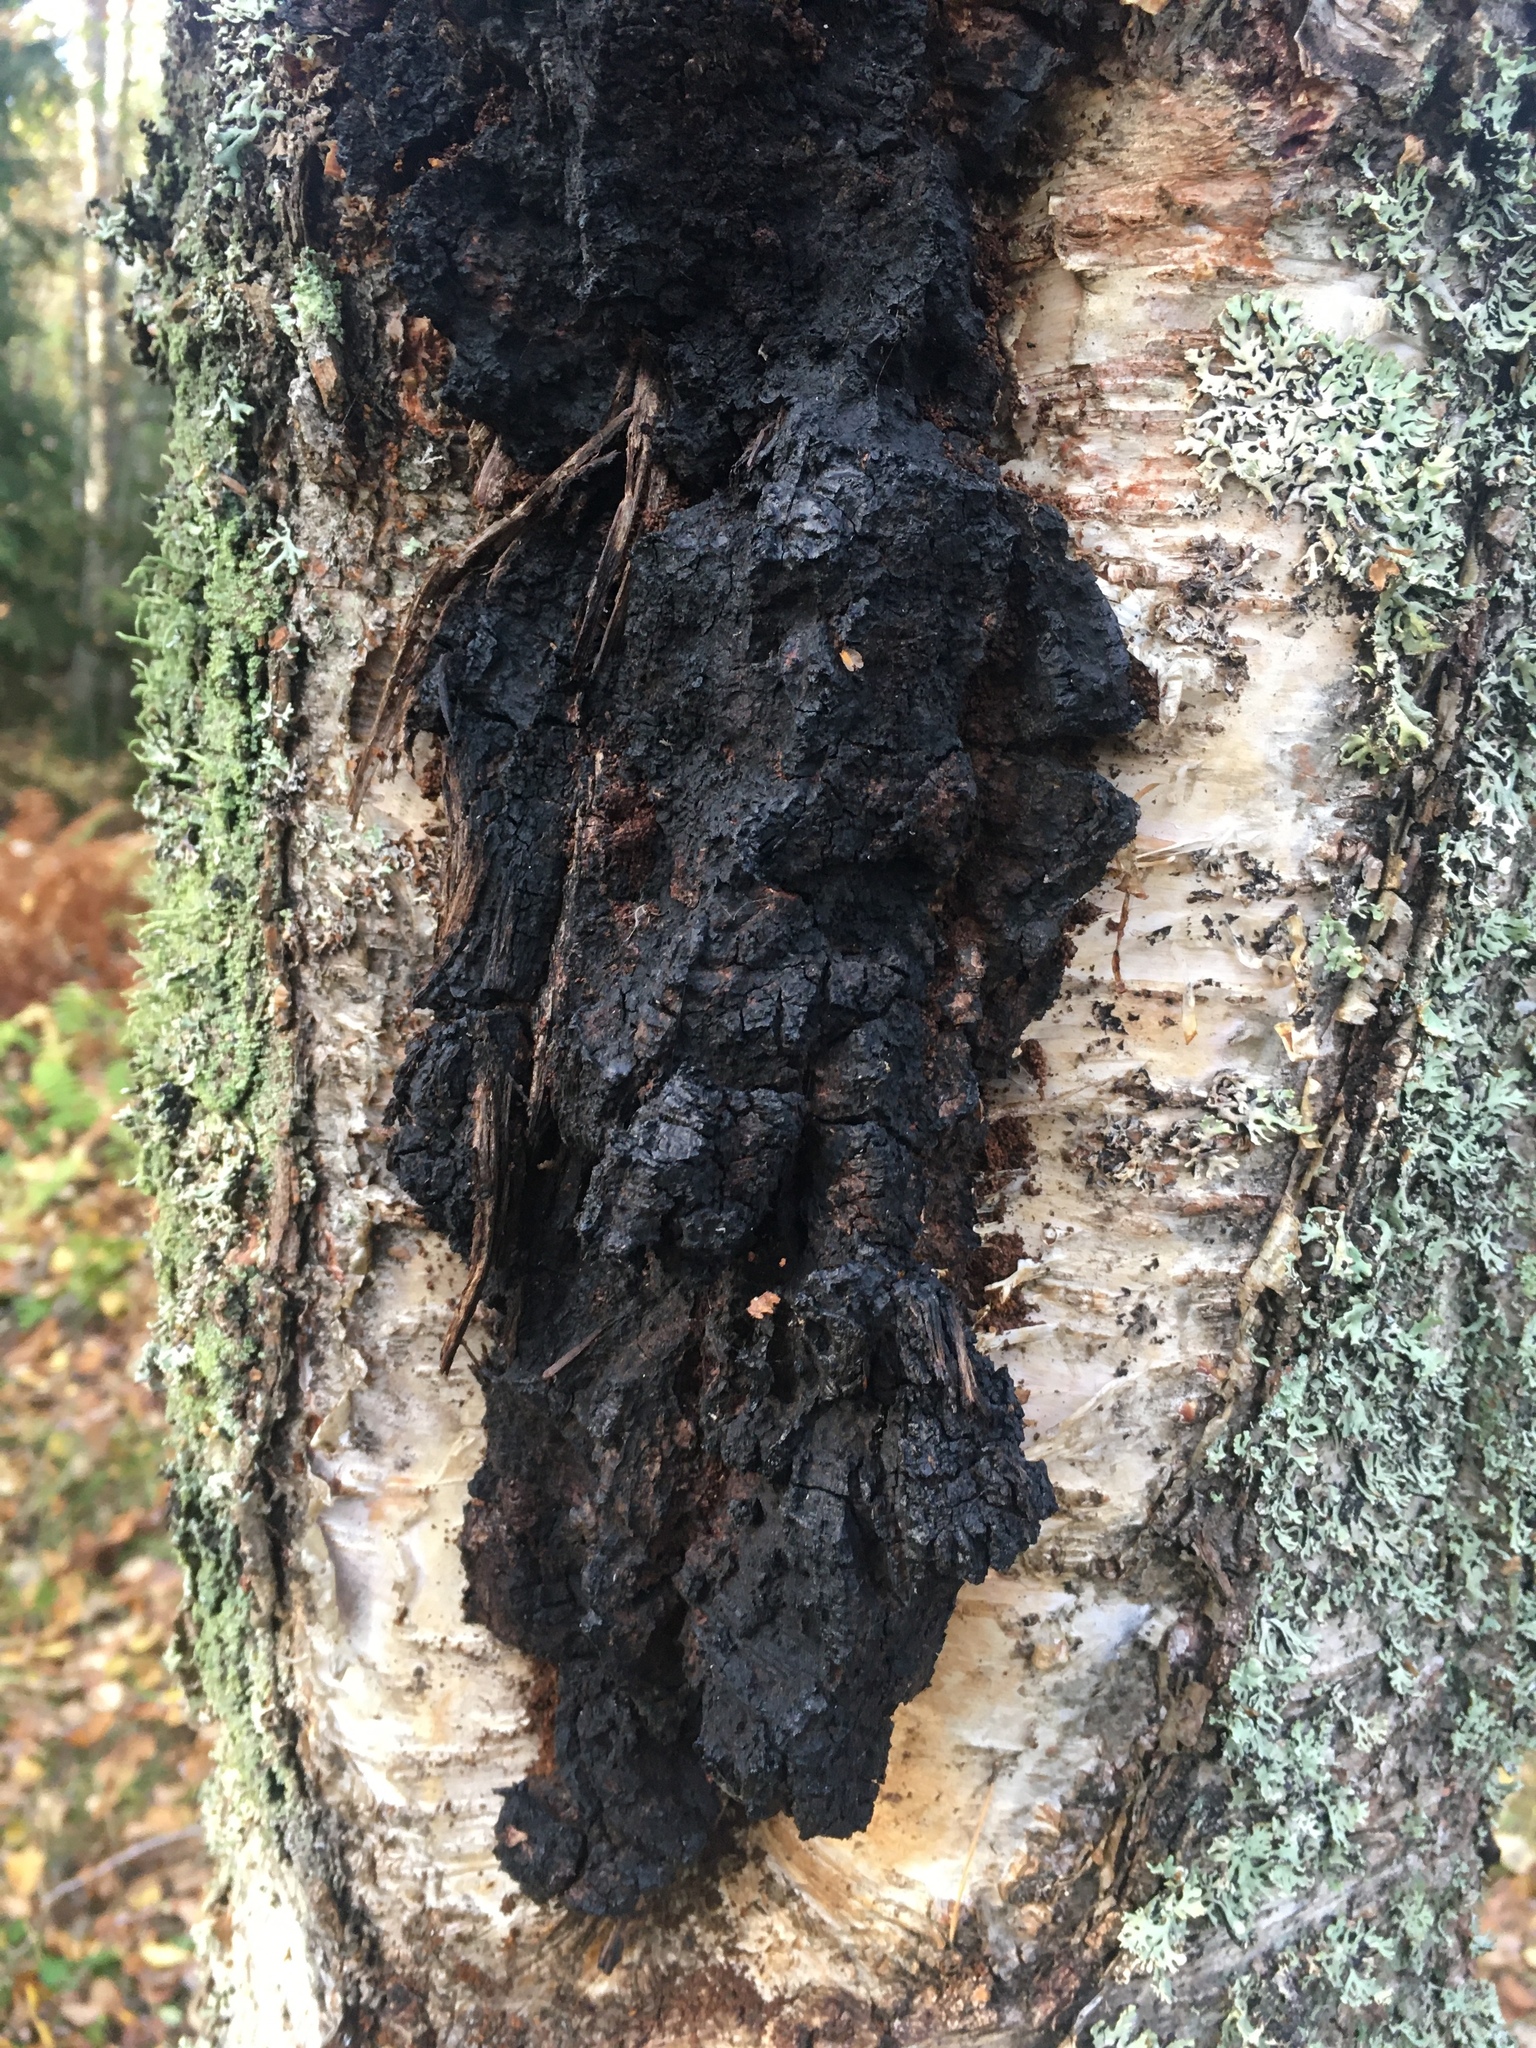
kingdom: Fungi
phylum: Basidiomycota
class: Agaricomycetes
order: Hymenochaetales
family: Hymenochaetaceae
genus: Inonotus
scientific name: Inonotus obliquus
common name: Chaga
